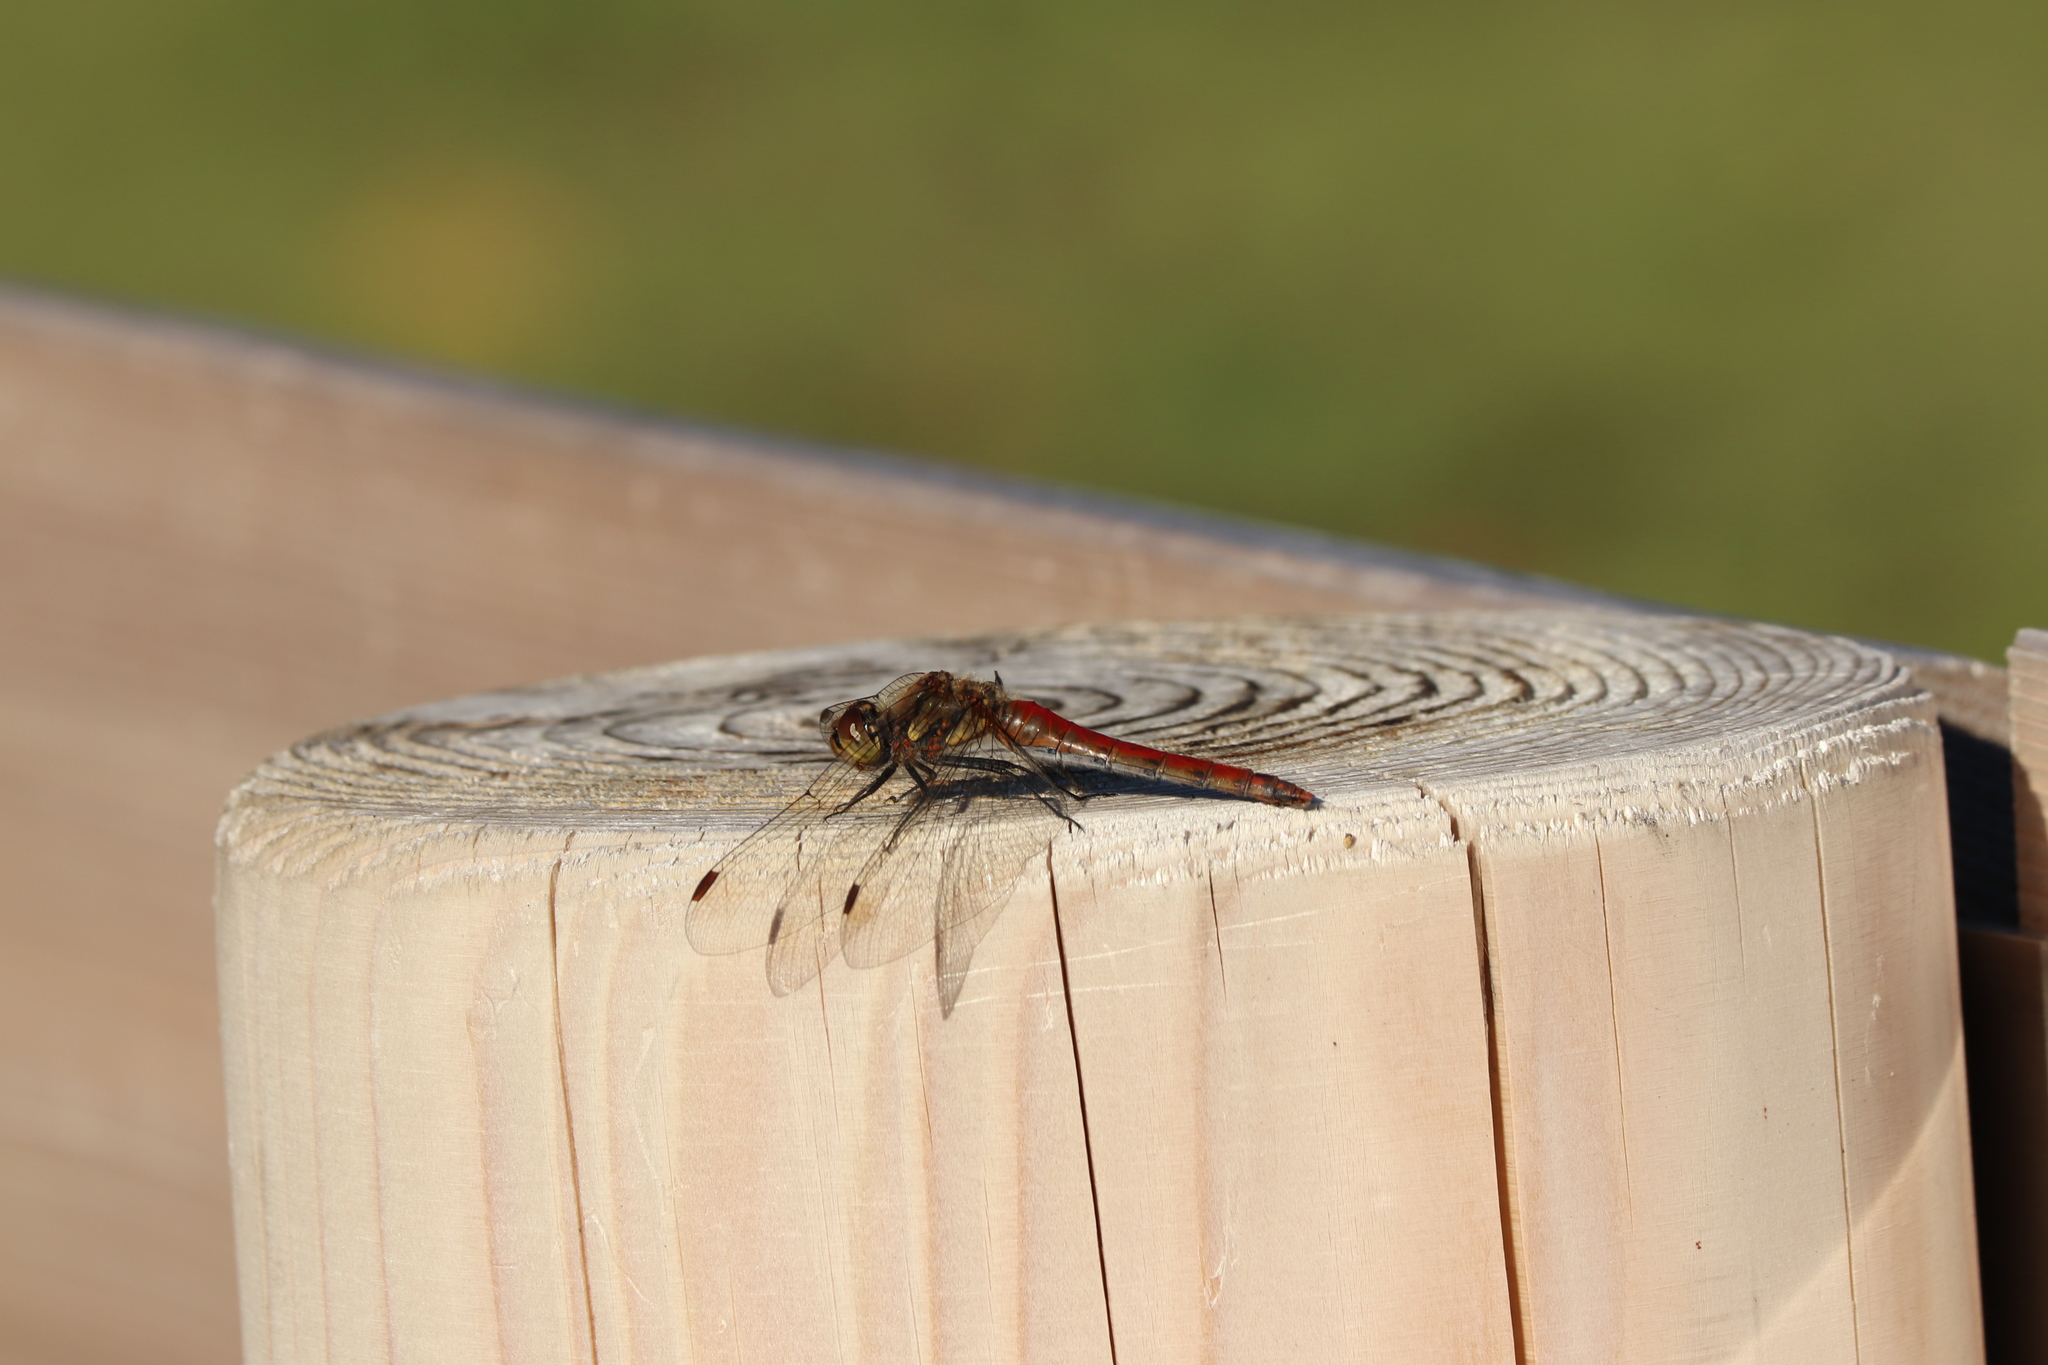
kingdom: Animalia
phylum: Arthropoda
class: Insecta
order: Odonata
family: Libellulidae
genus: Sympetrum
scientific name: Sympetrum frequens
